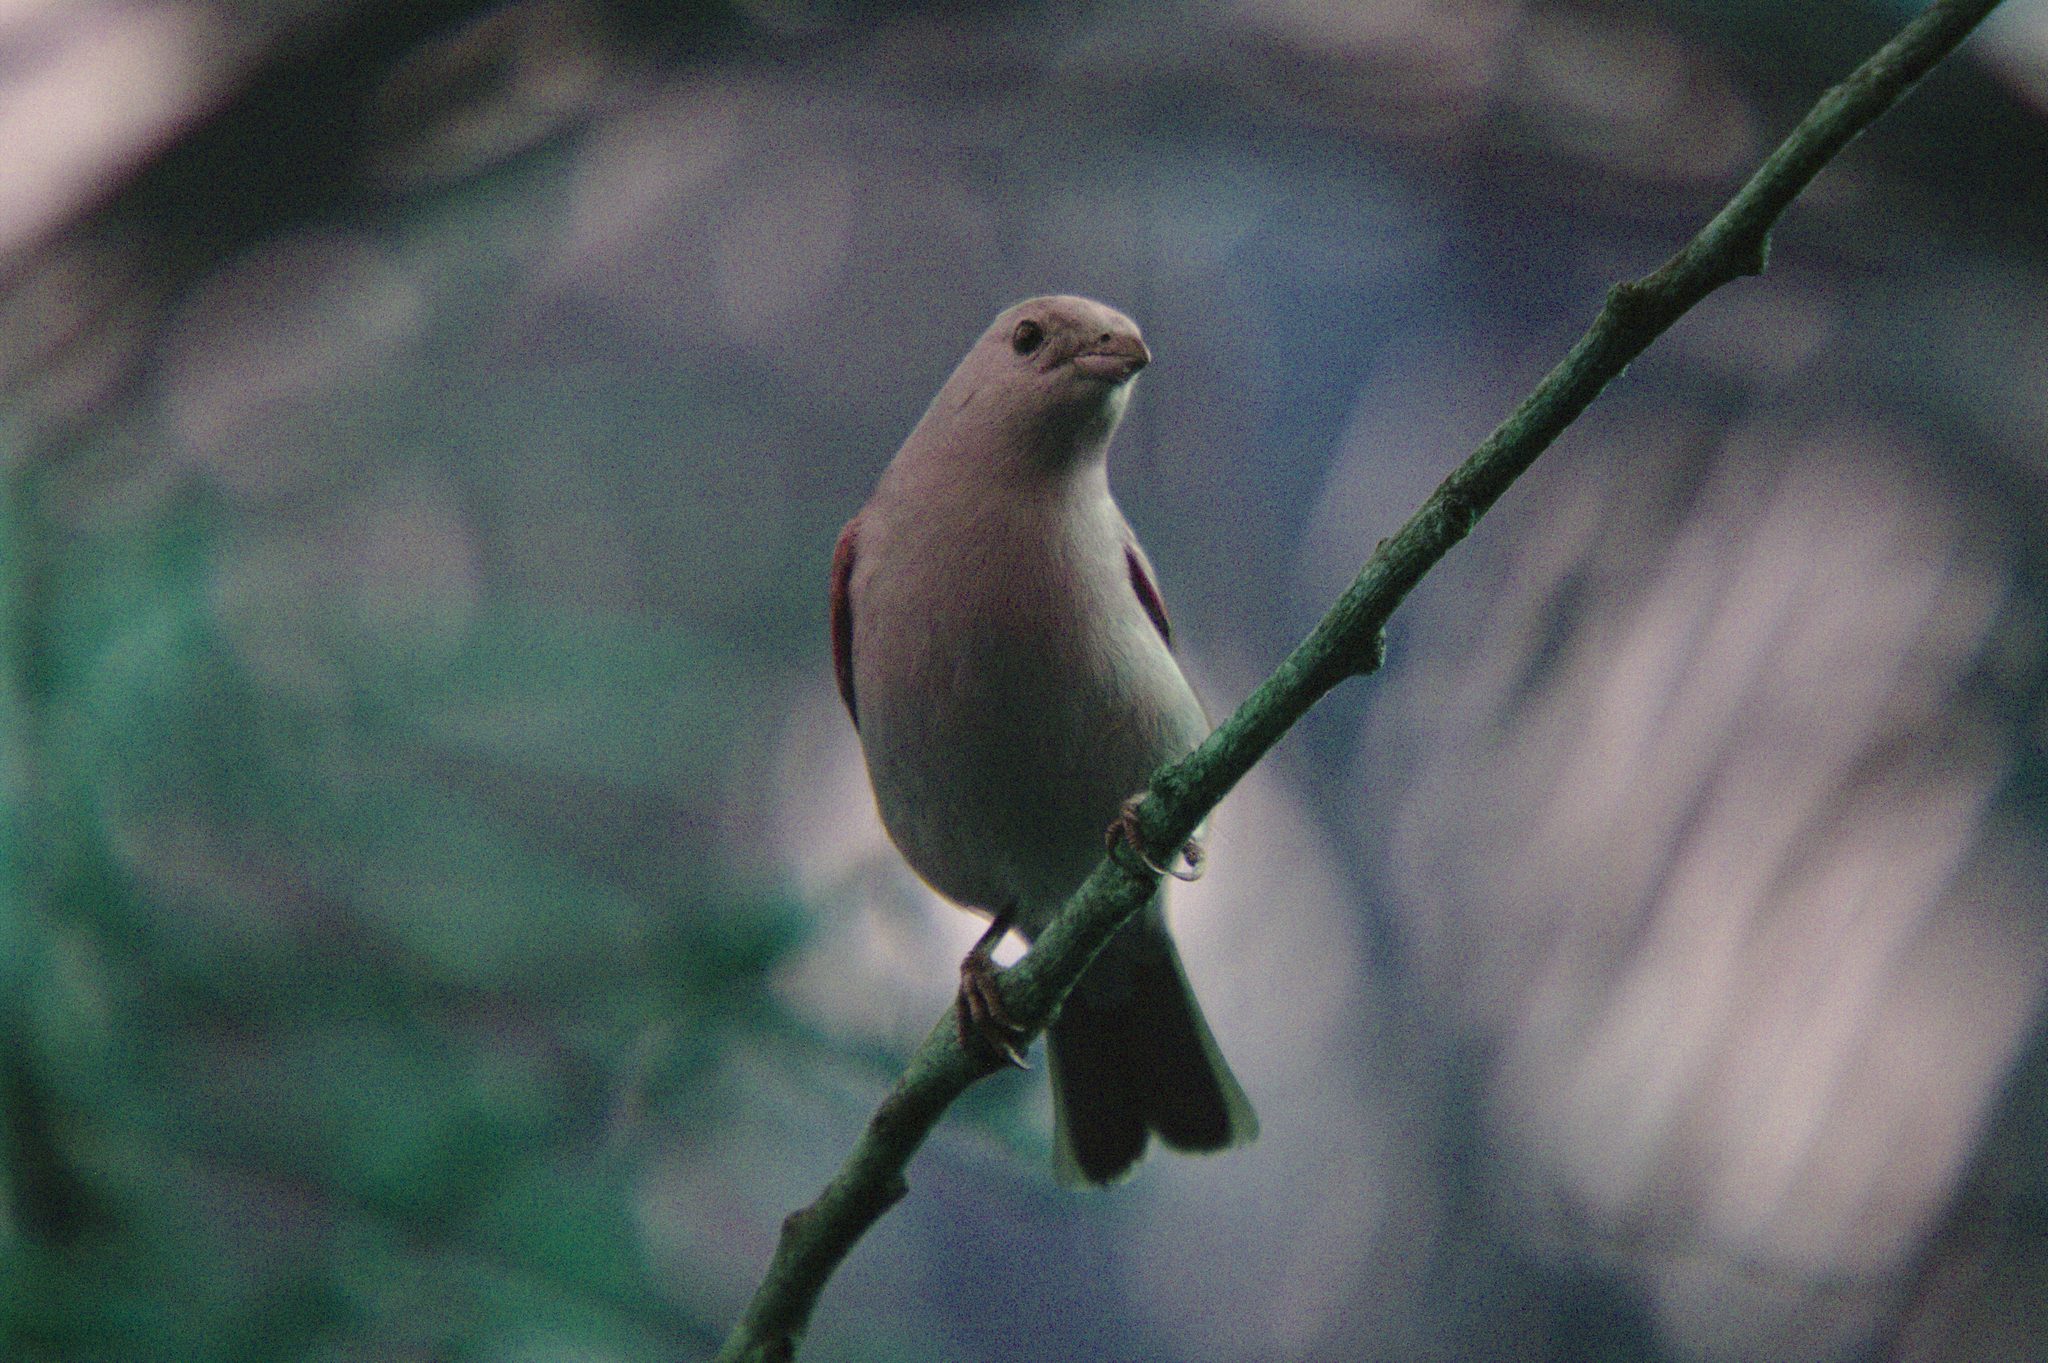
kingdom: Animalia
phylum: Chordata
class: Aves
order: Passeriformes
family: Thraupidae
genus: Thraupis
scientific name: Thraupis episcopus
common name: Blue-grey tanager
